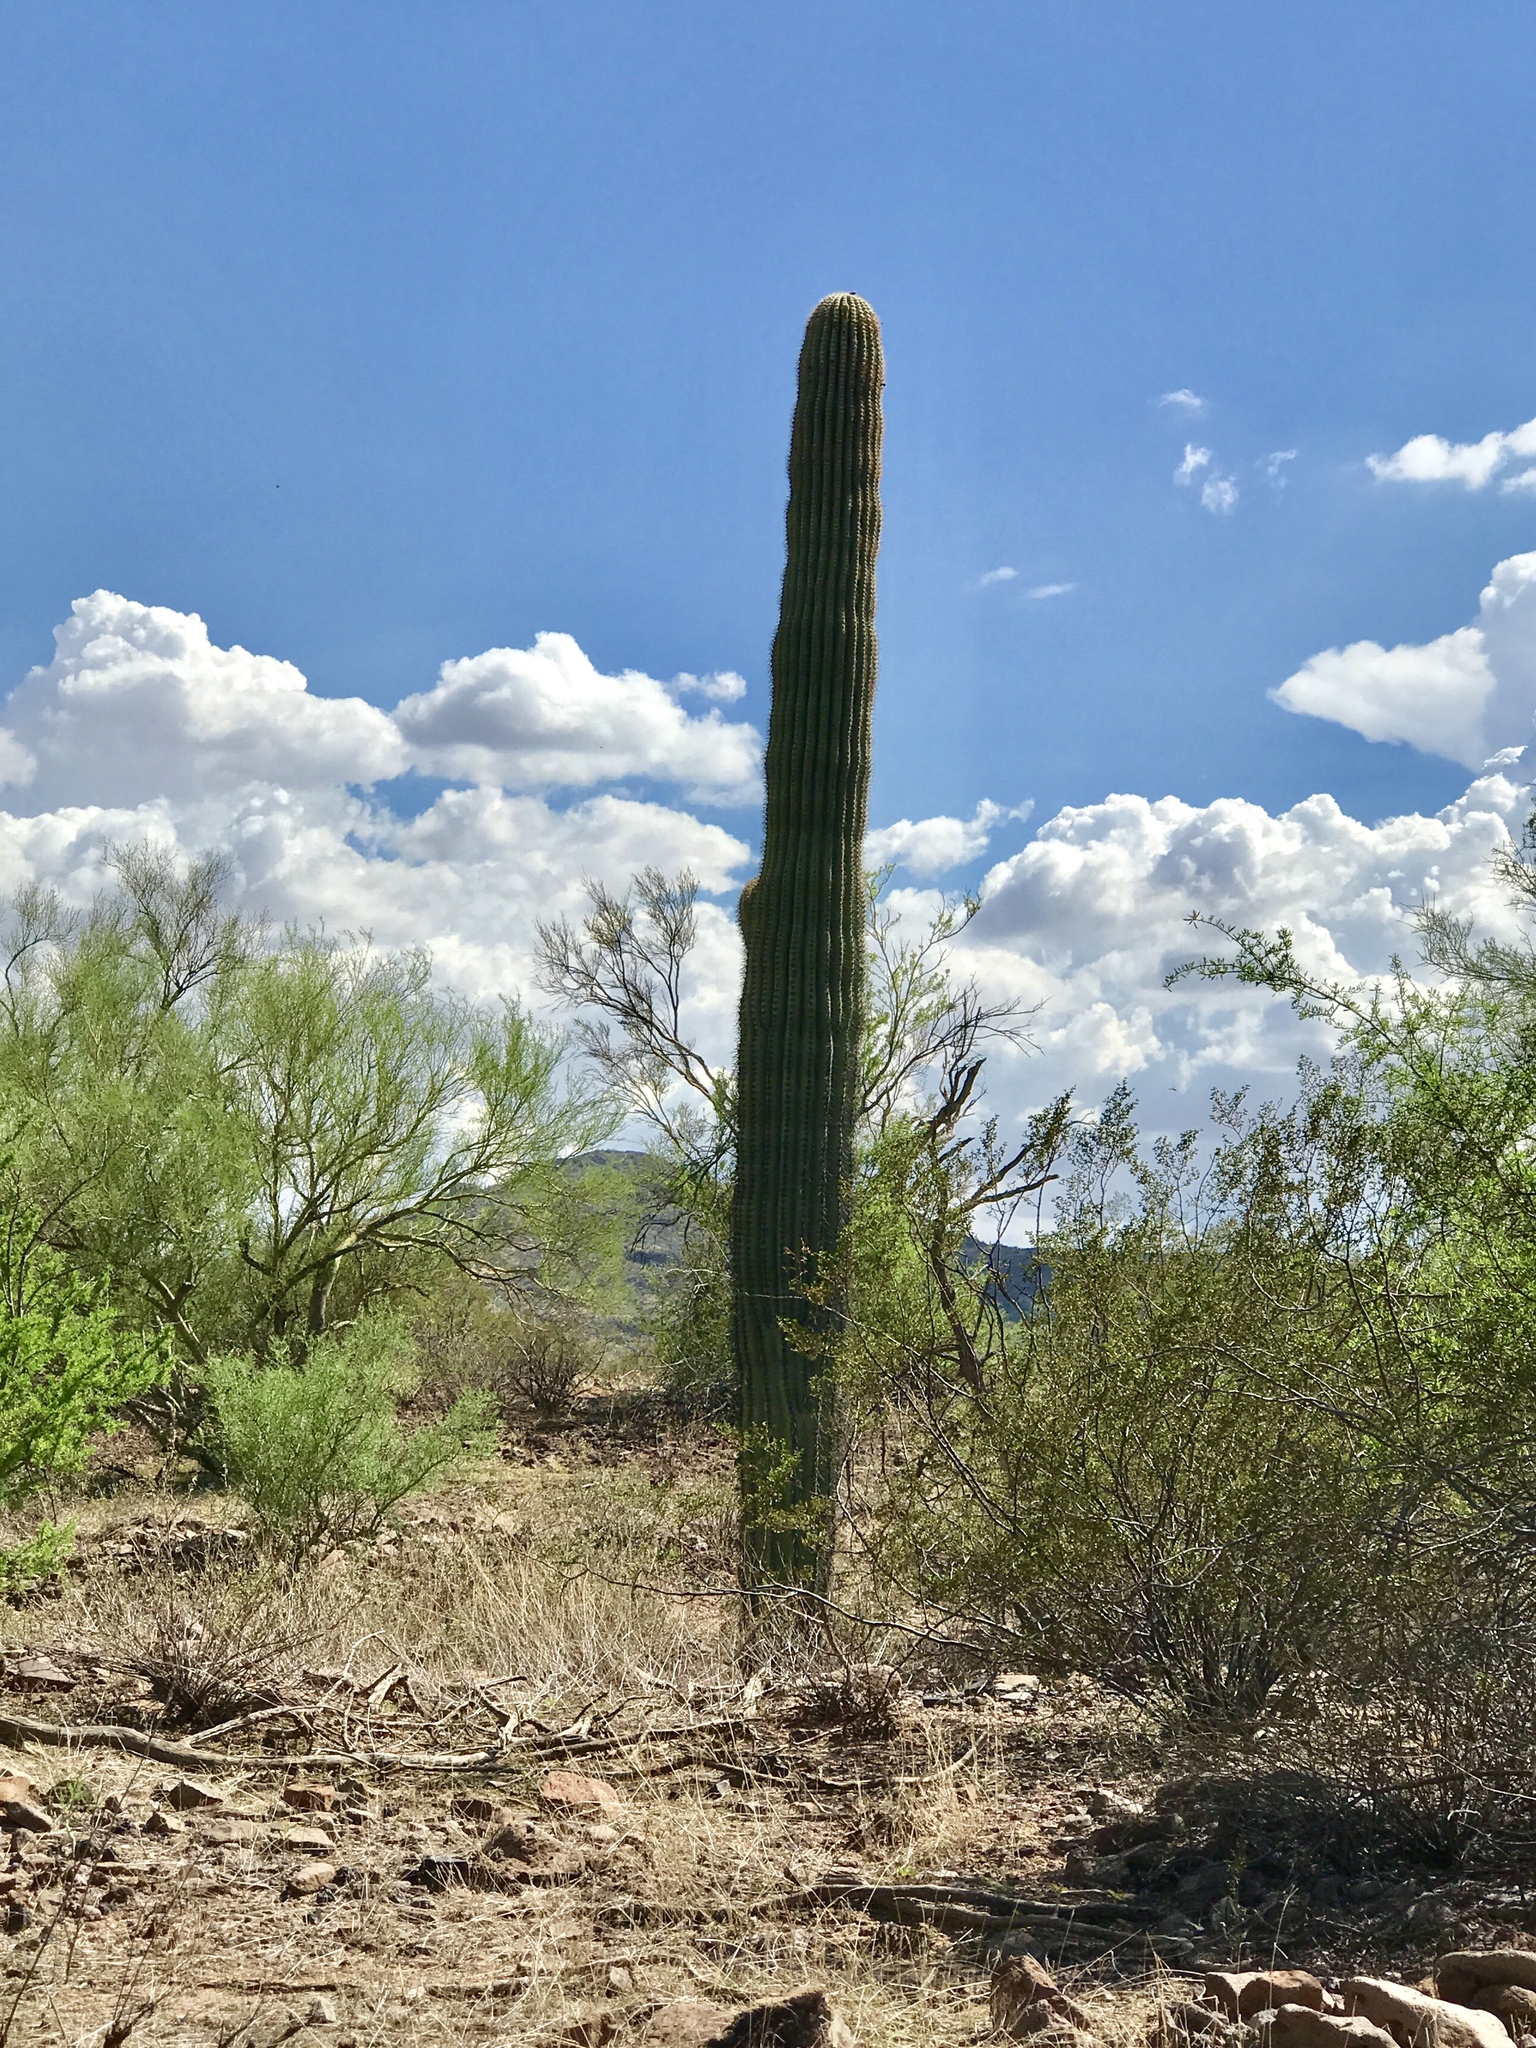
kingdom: Plantae
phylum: Tracheophyta
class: Magnoliopsida
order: Caryophyllales
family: Cactaceae
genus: Carnegiea
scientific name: Carnegiea gigantea
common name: Saguaro
